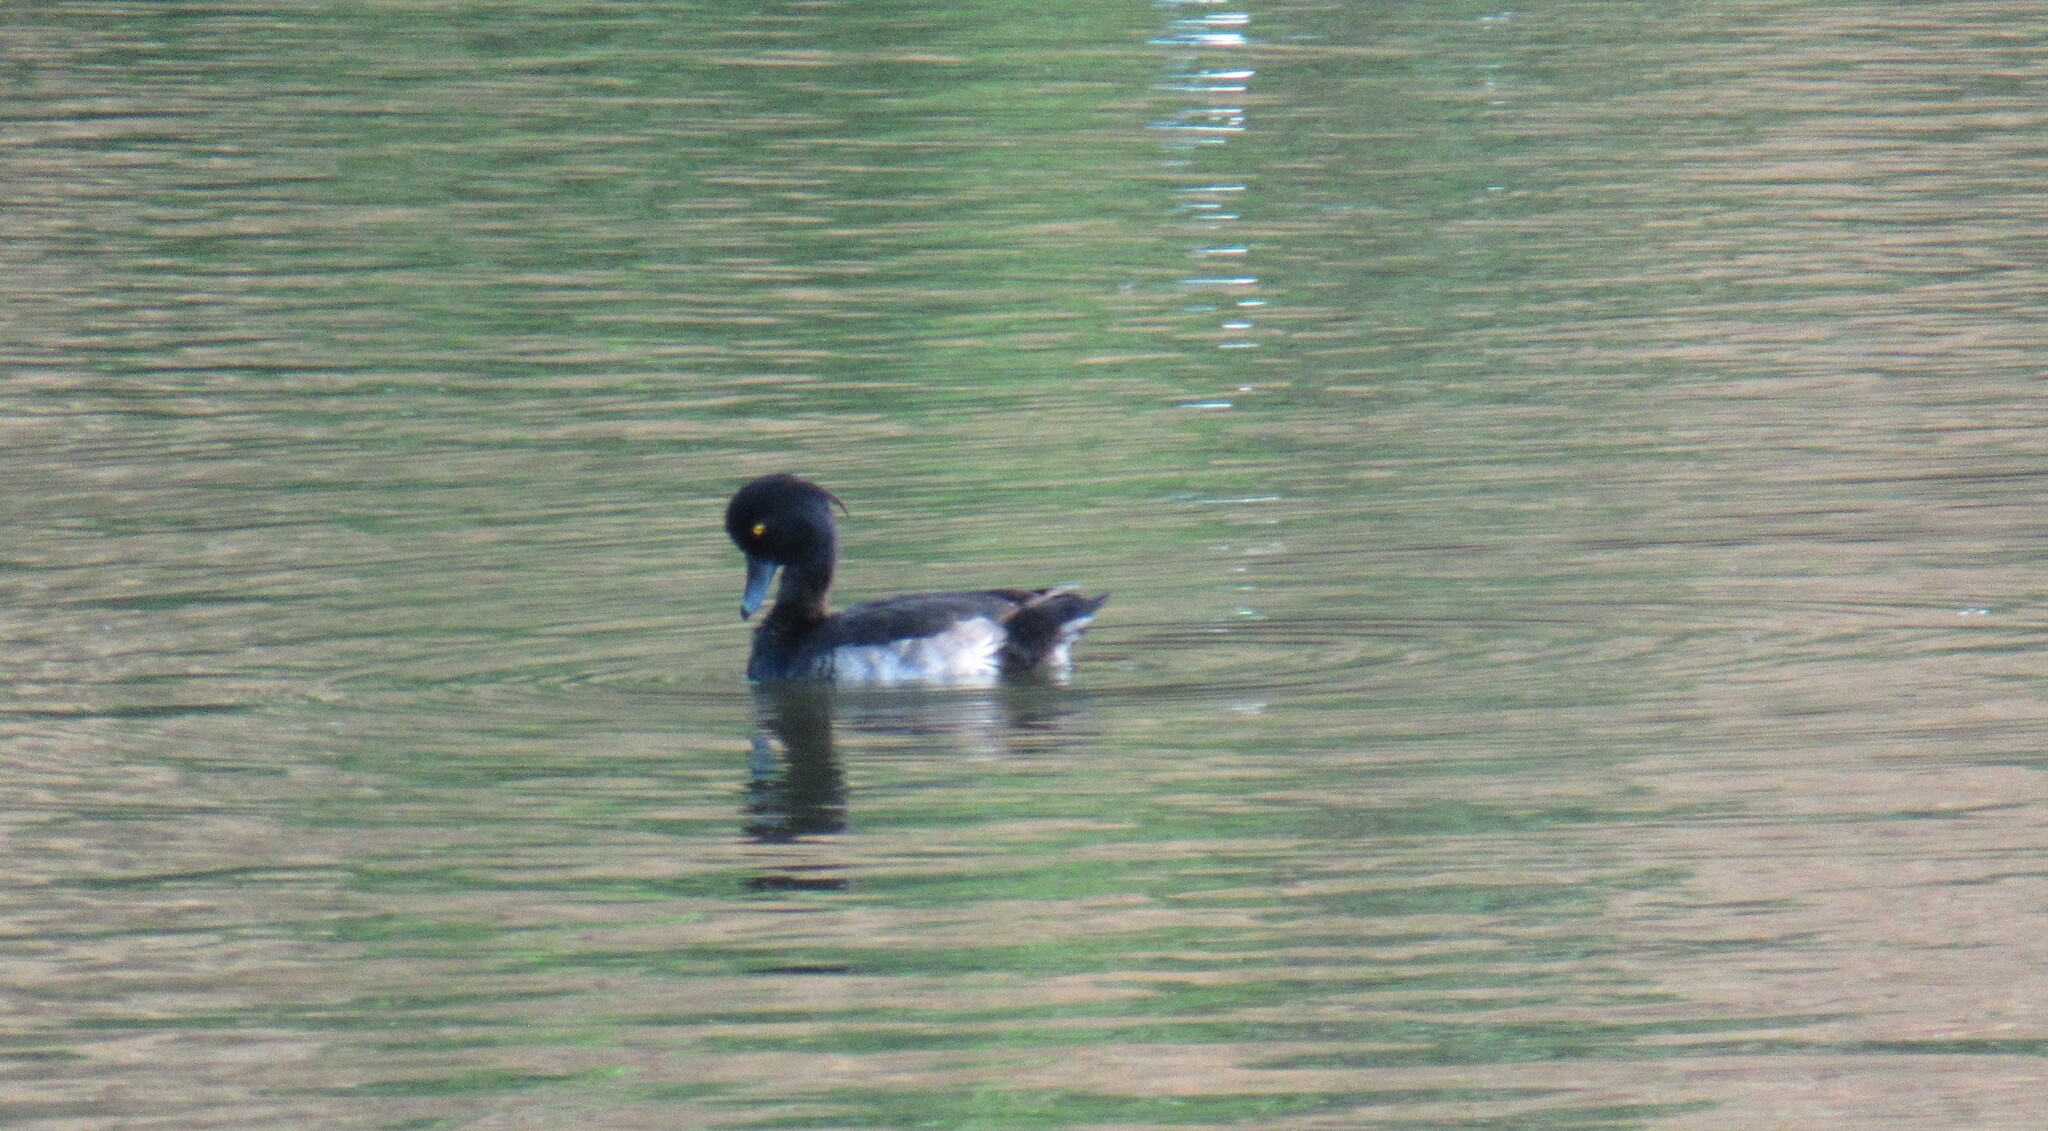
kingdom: Animalia
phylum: Chordata
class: Aves
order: Anseriformes
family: Anatidae
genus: Aythya
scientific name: Aythya fuligula
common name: Tufted duck
